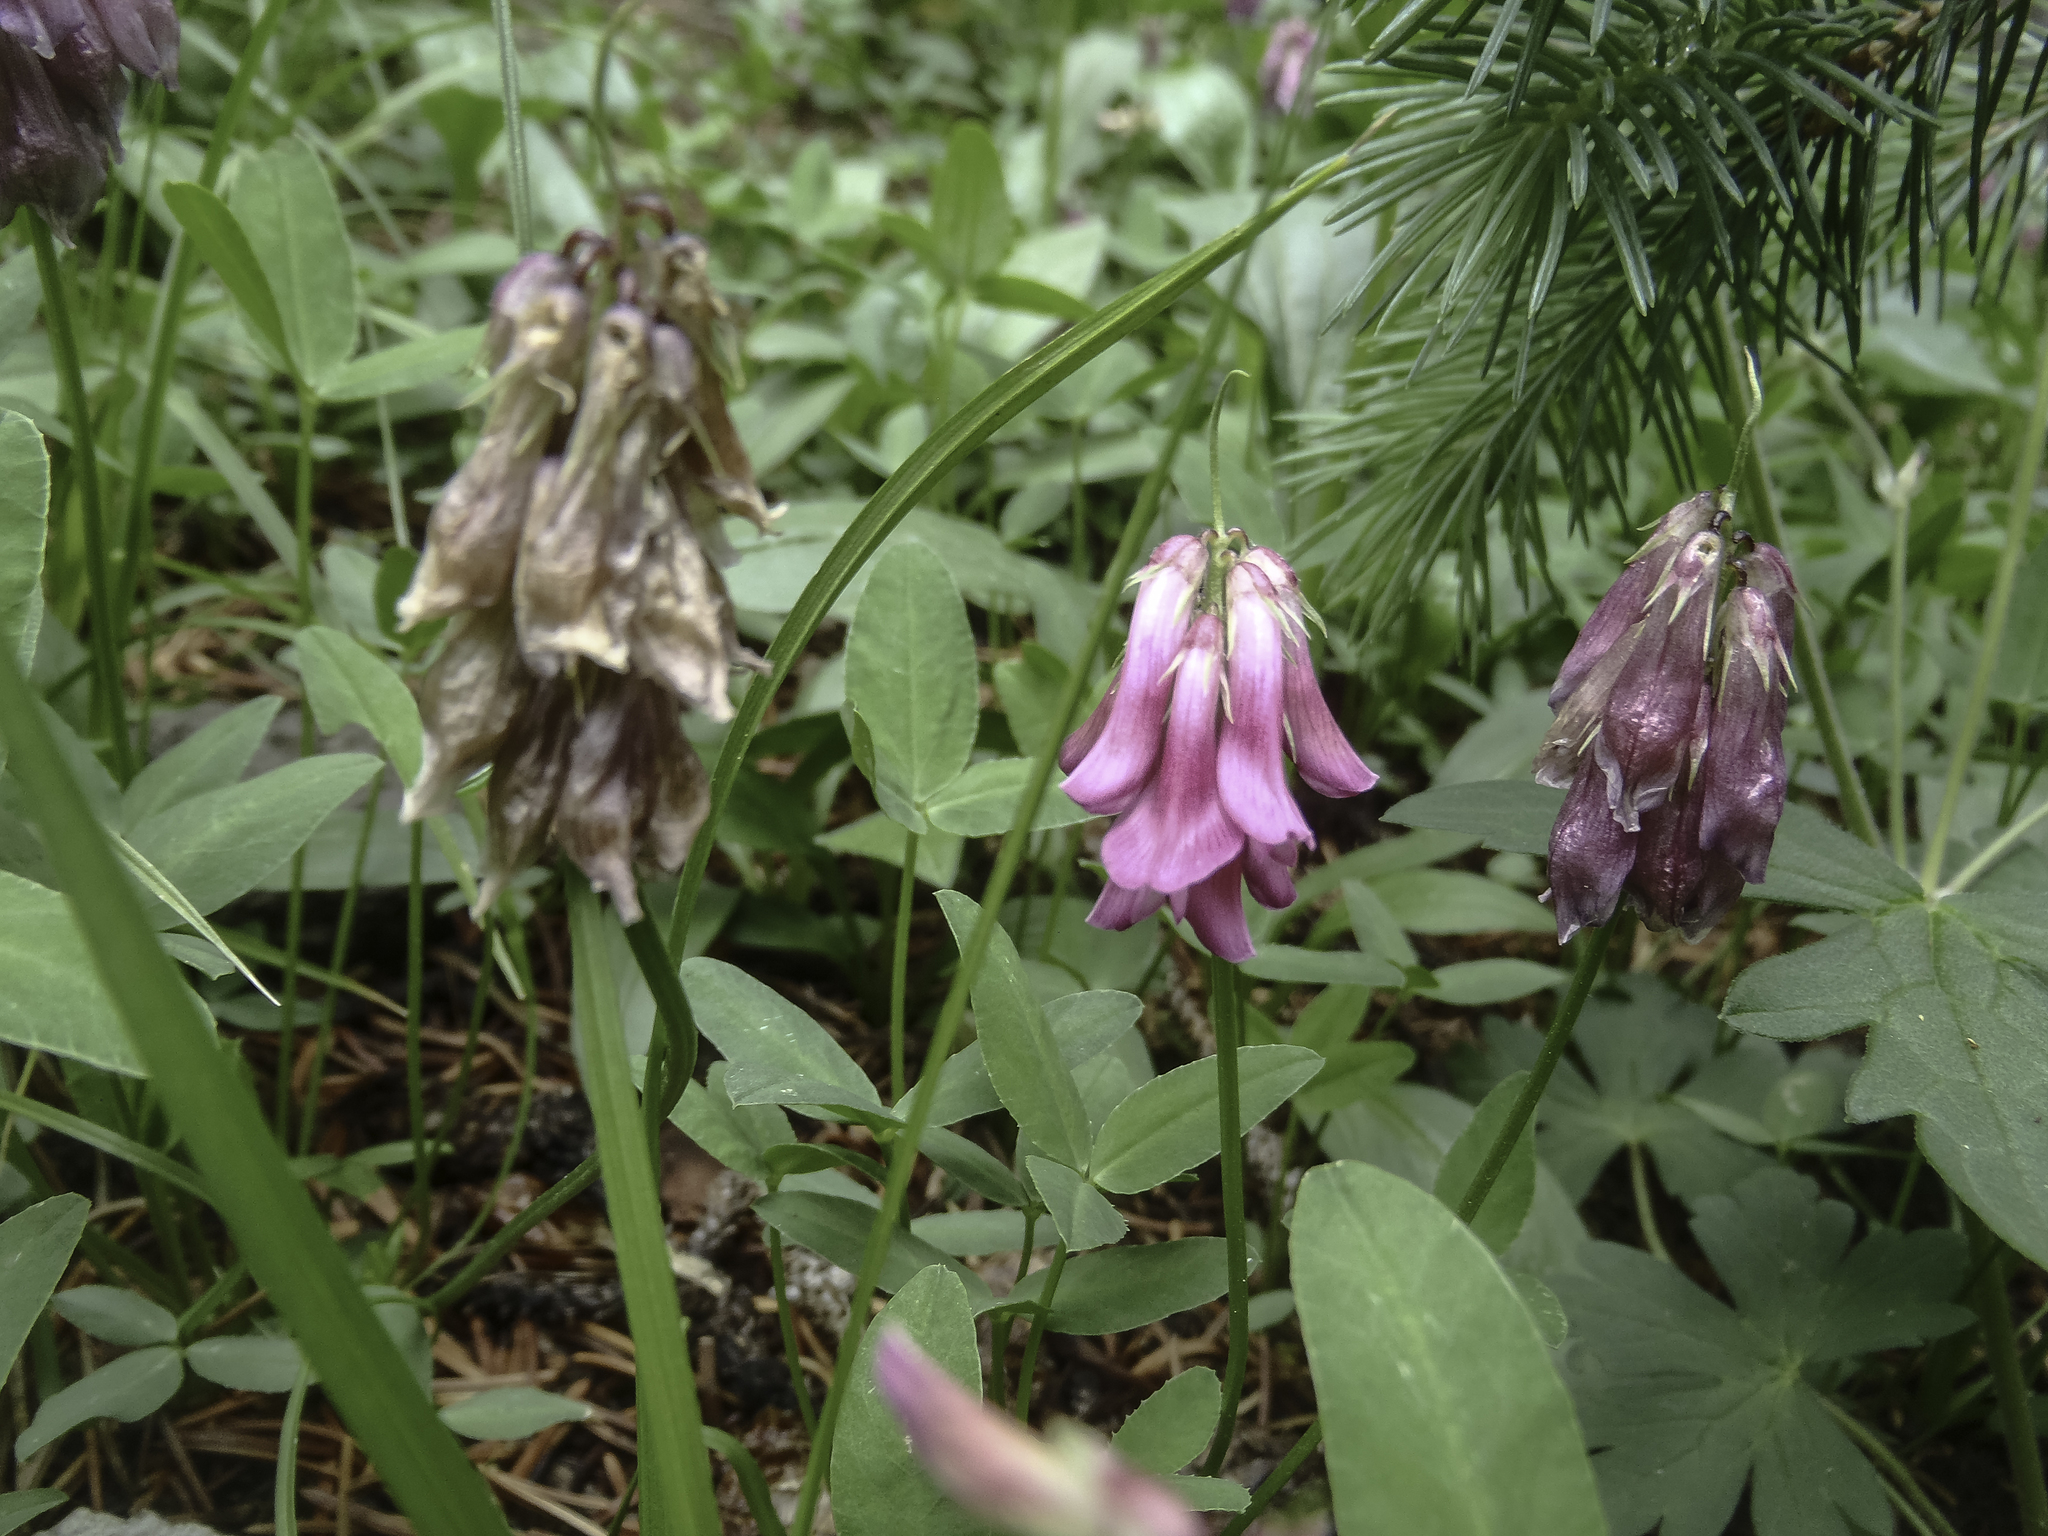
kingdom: Plantae
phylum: Tracheophyta
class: Magnoliopsida
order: Fabales
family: Fabaceae
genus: Trifolium
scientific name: Trifolium brandegeei
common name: Brandegee's clover
